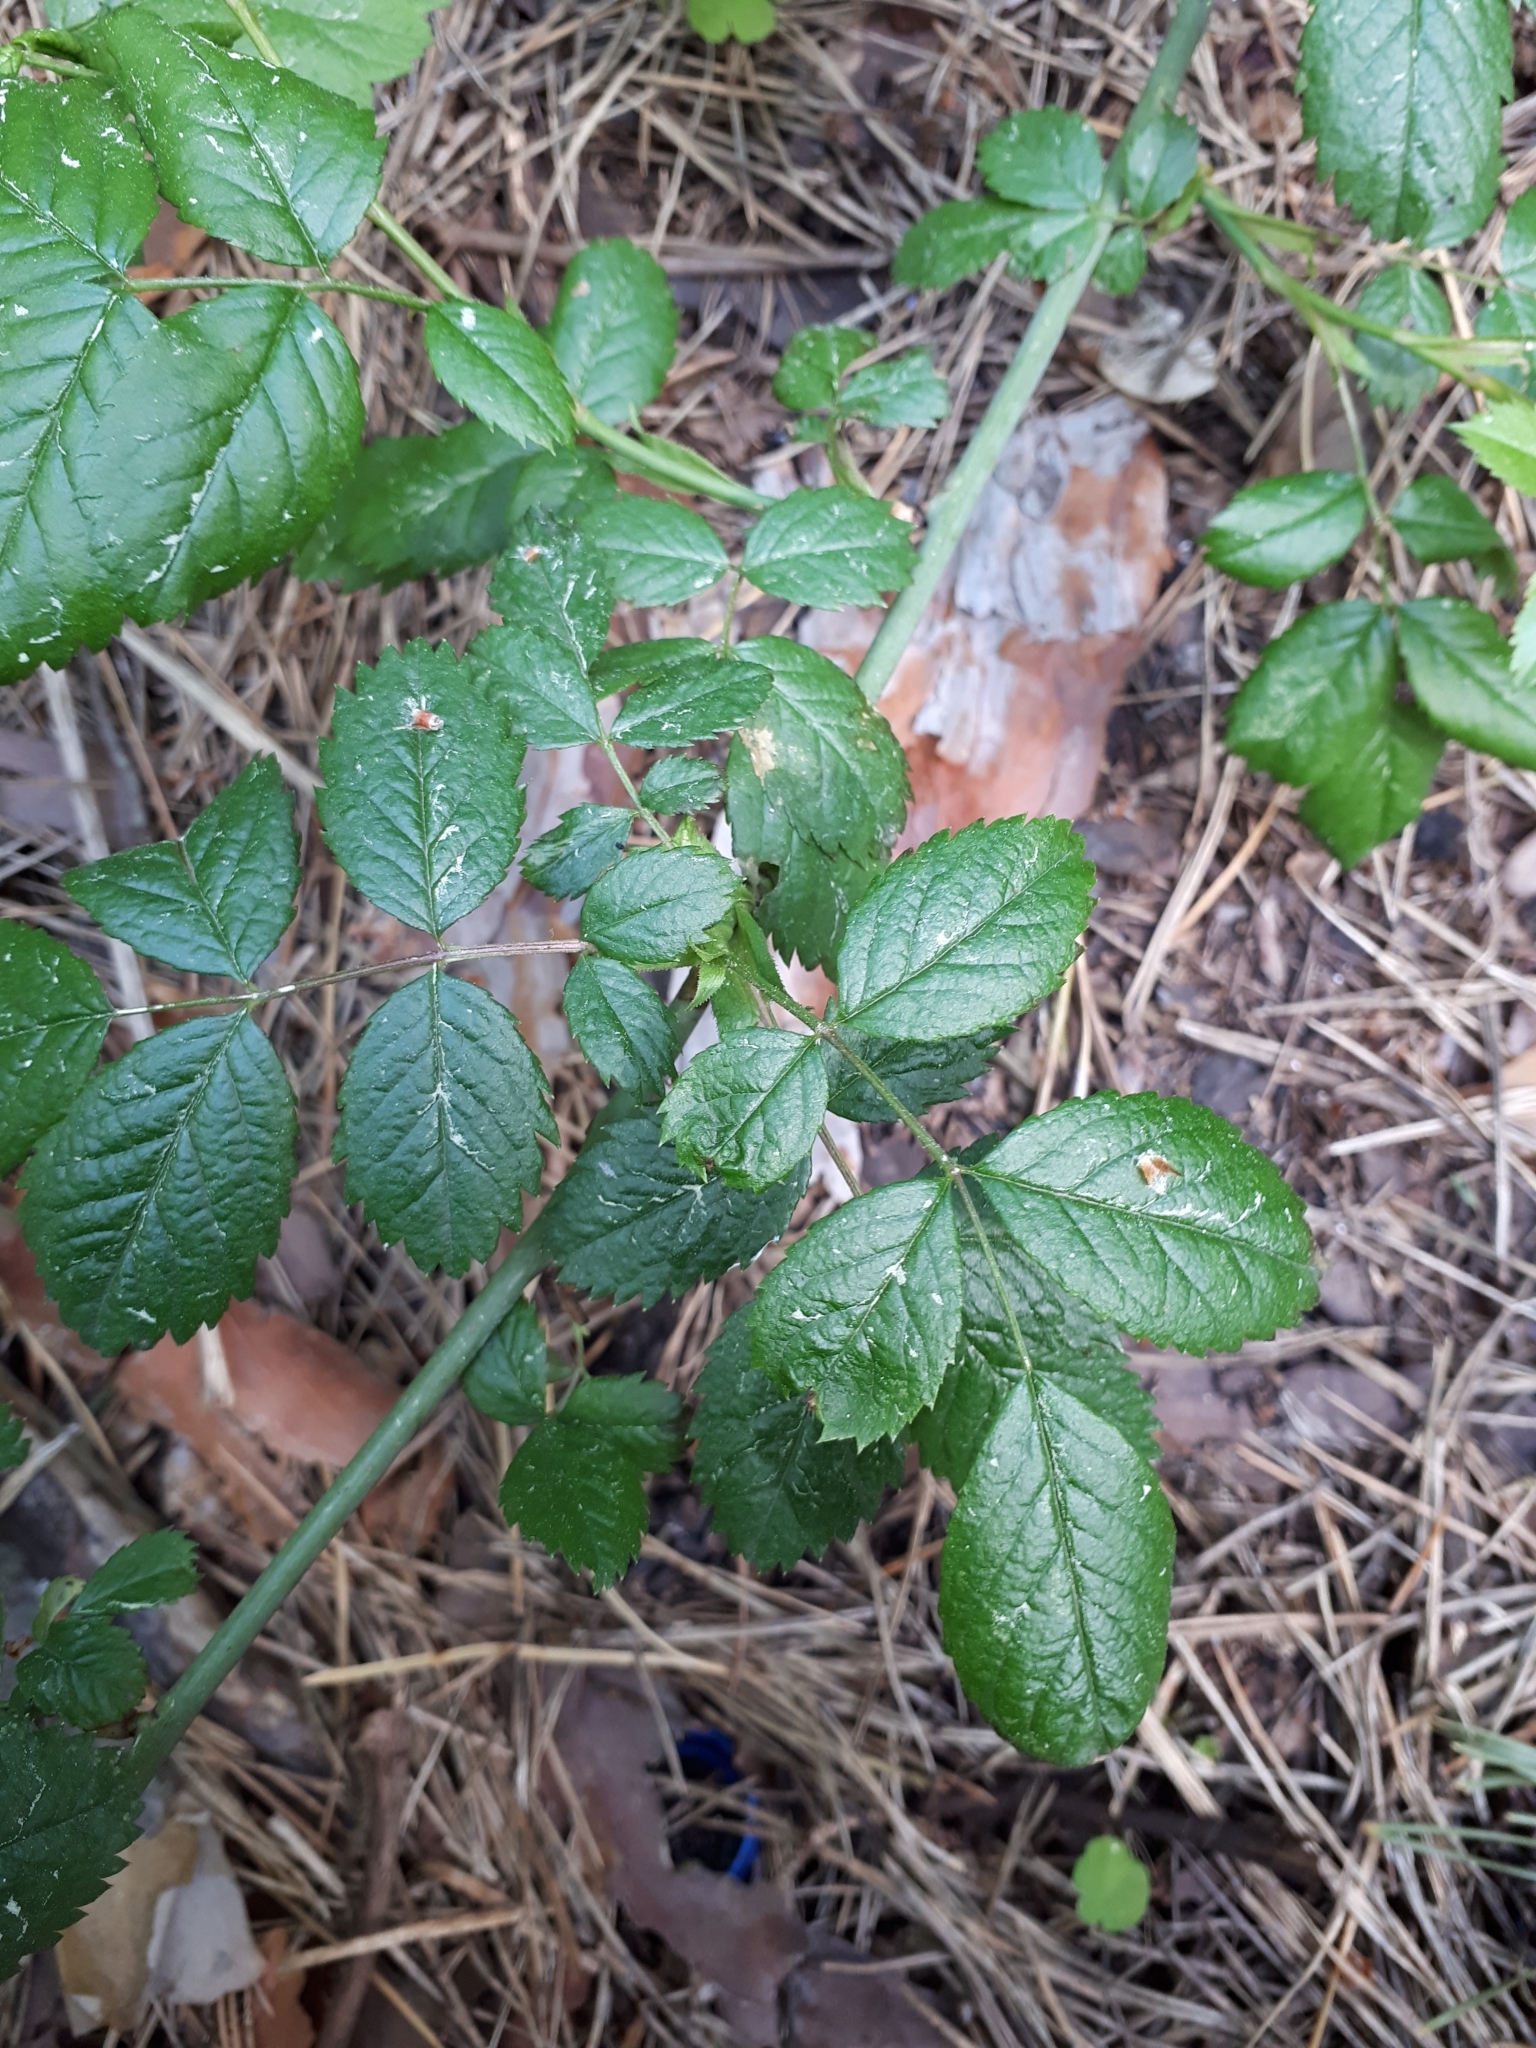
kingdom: Plantae
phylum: Tracheophyta
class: Magnoliopsida
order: Rosales
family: Rosaceae
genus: Rosa
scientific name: Rosa
